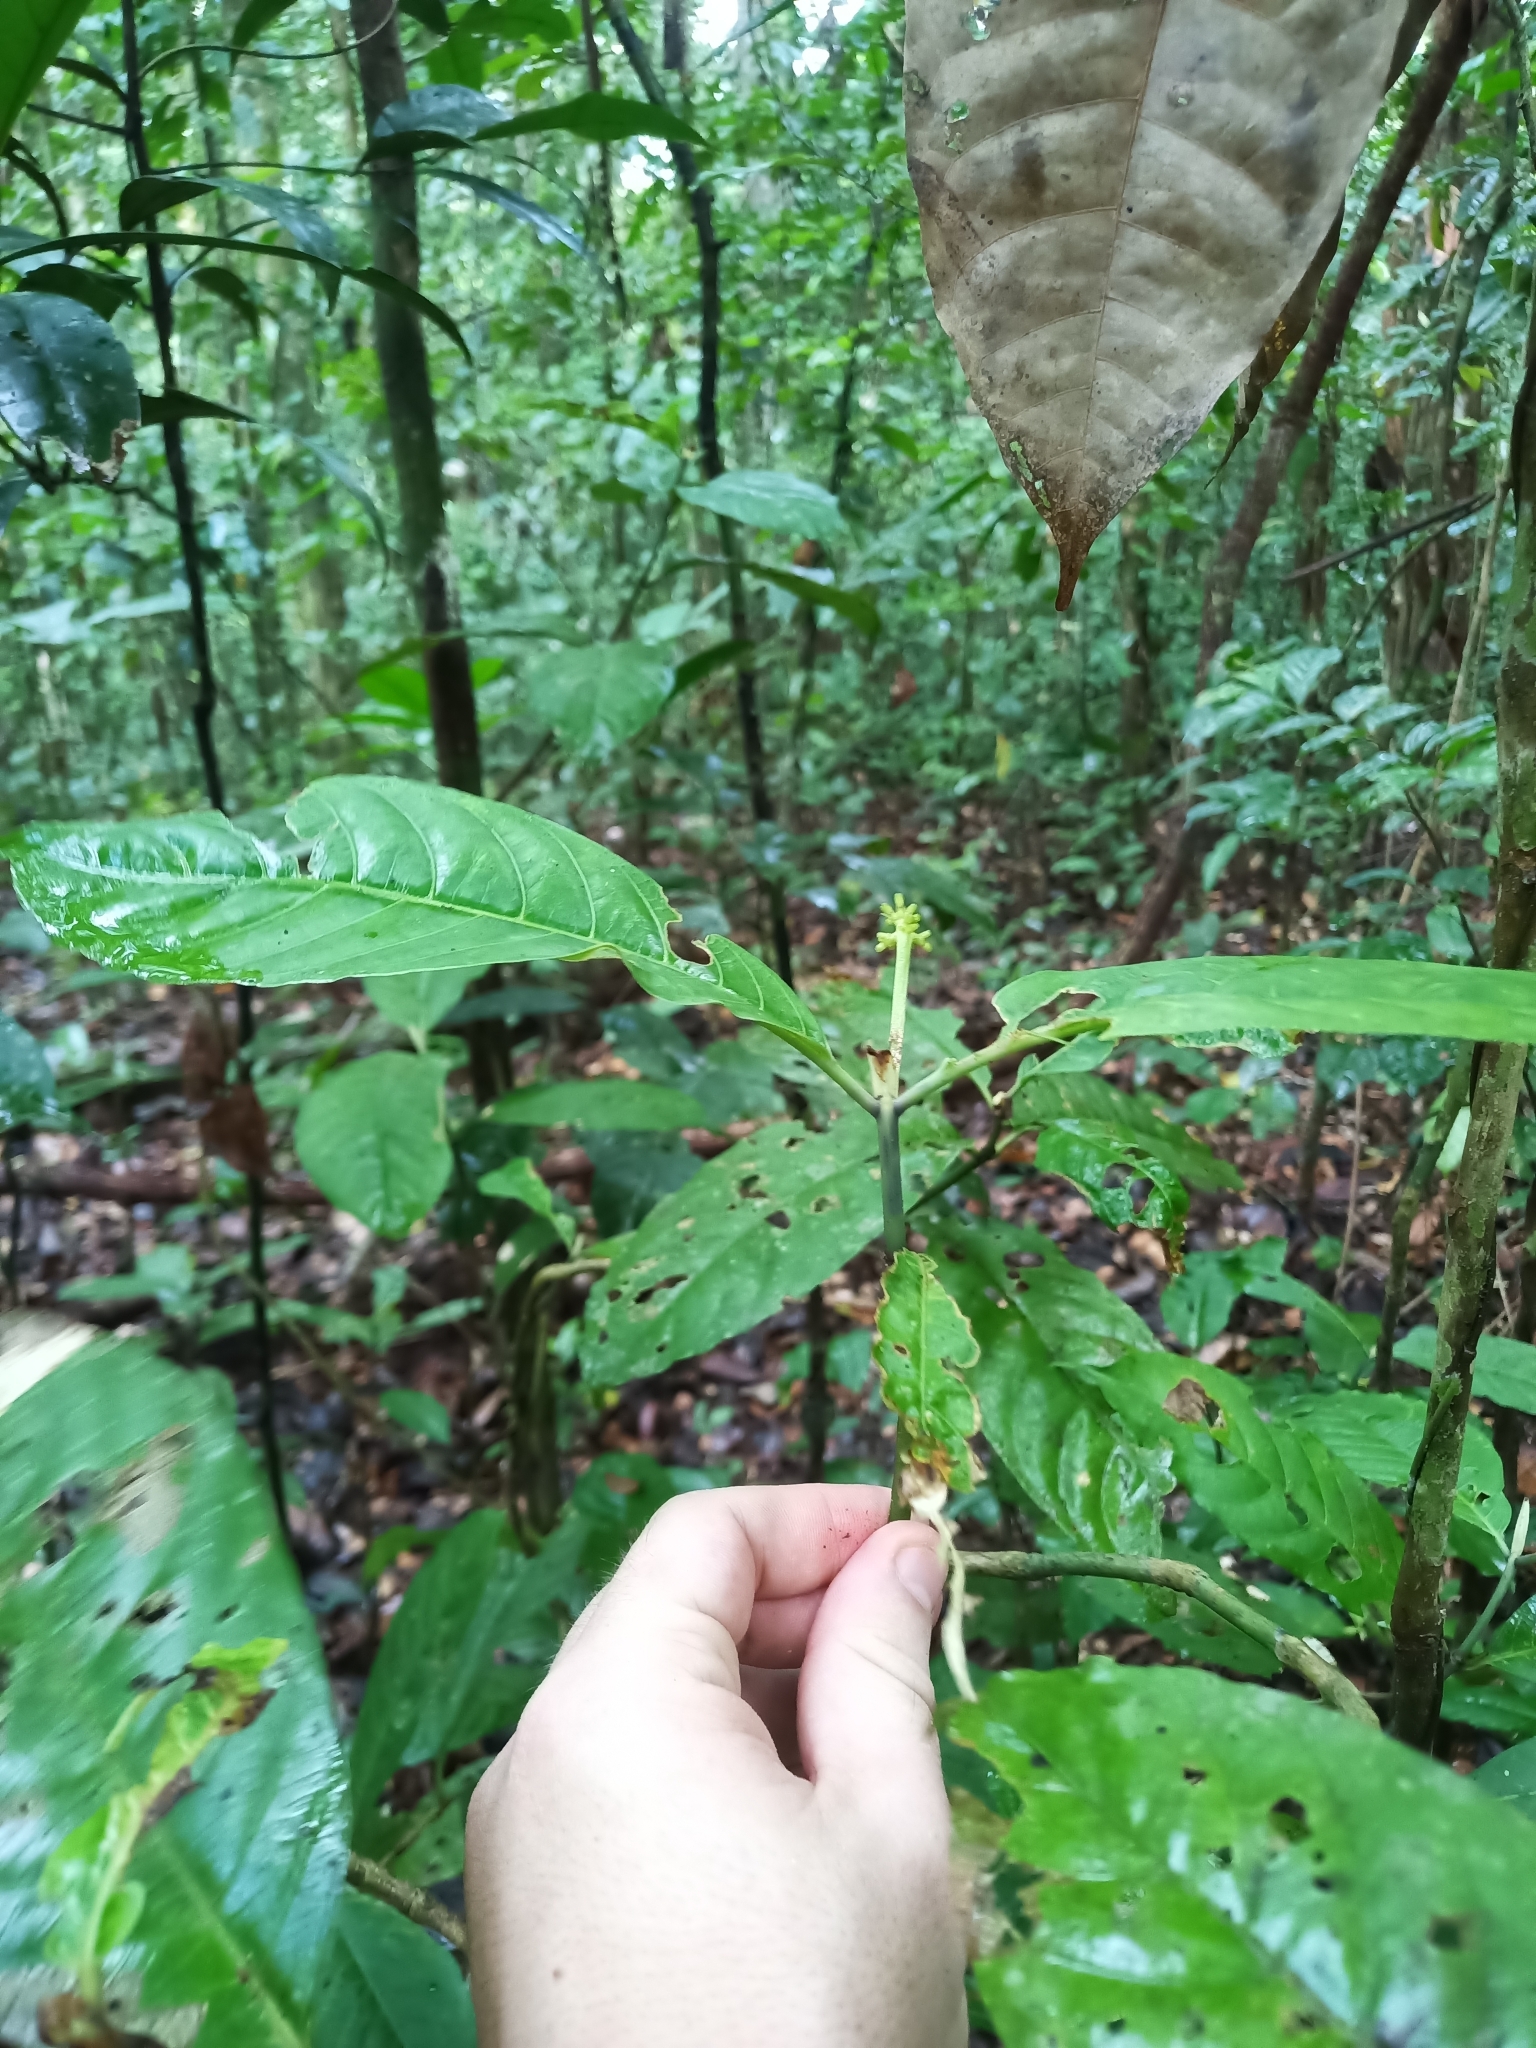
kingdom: Plantae
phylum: Tracheophyta
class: Magnoliopsida
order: Gentianales
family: Rubiaceae
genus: Rudgea
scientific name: Rudgea stipulacea
